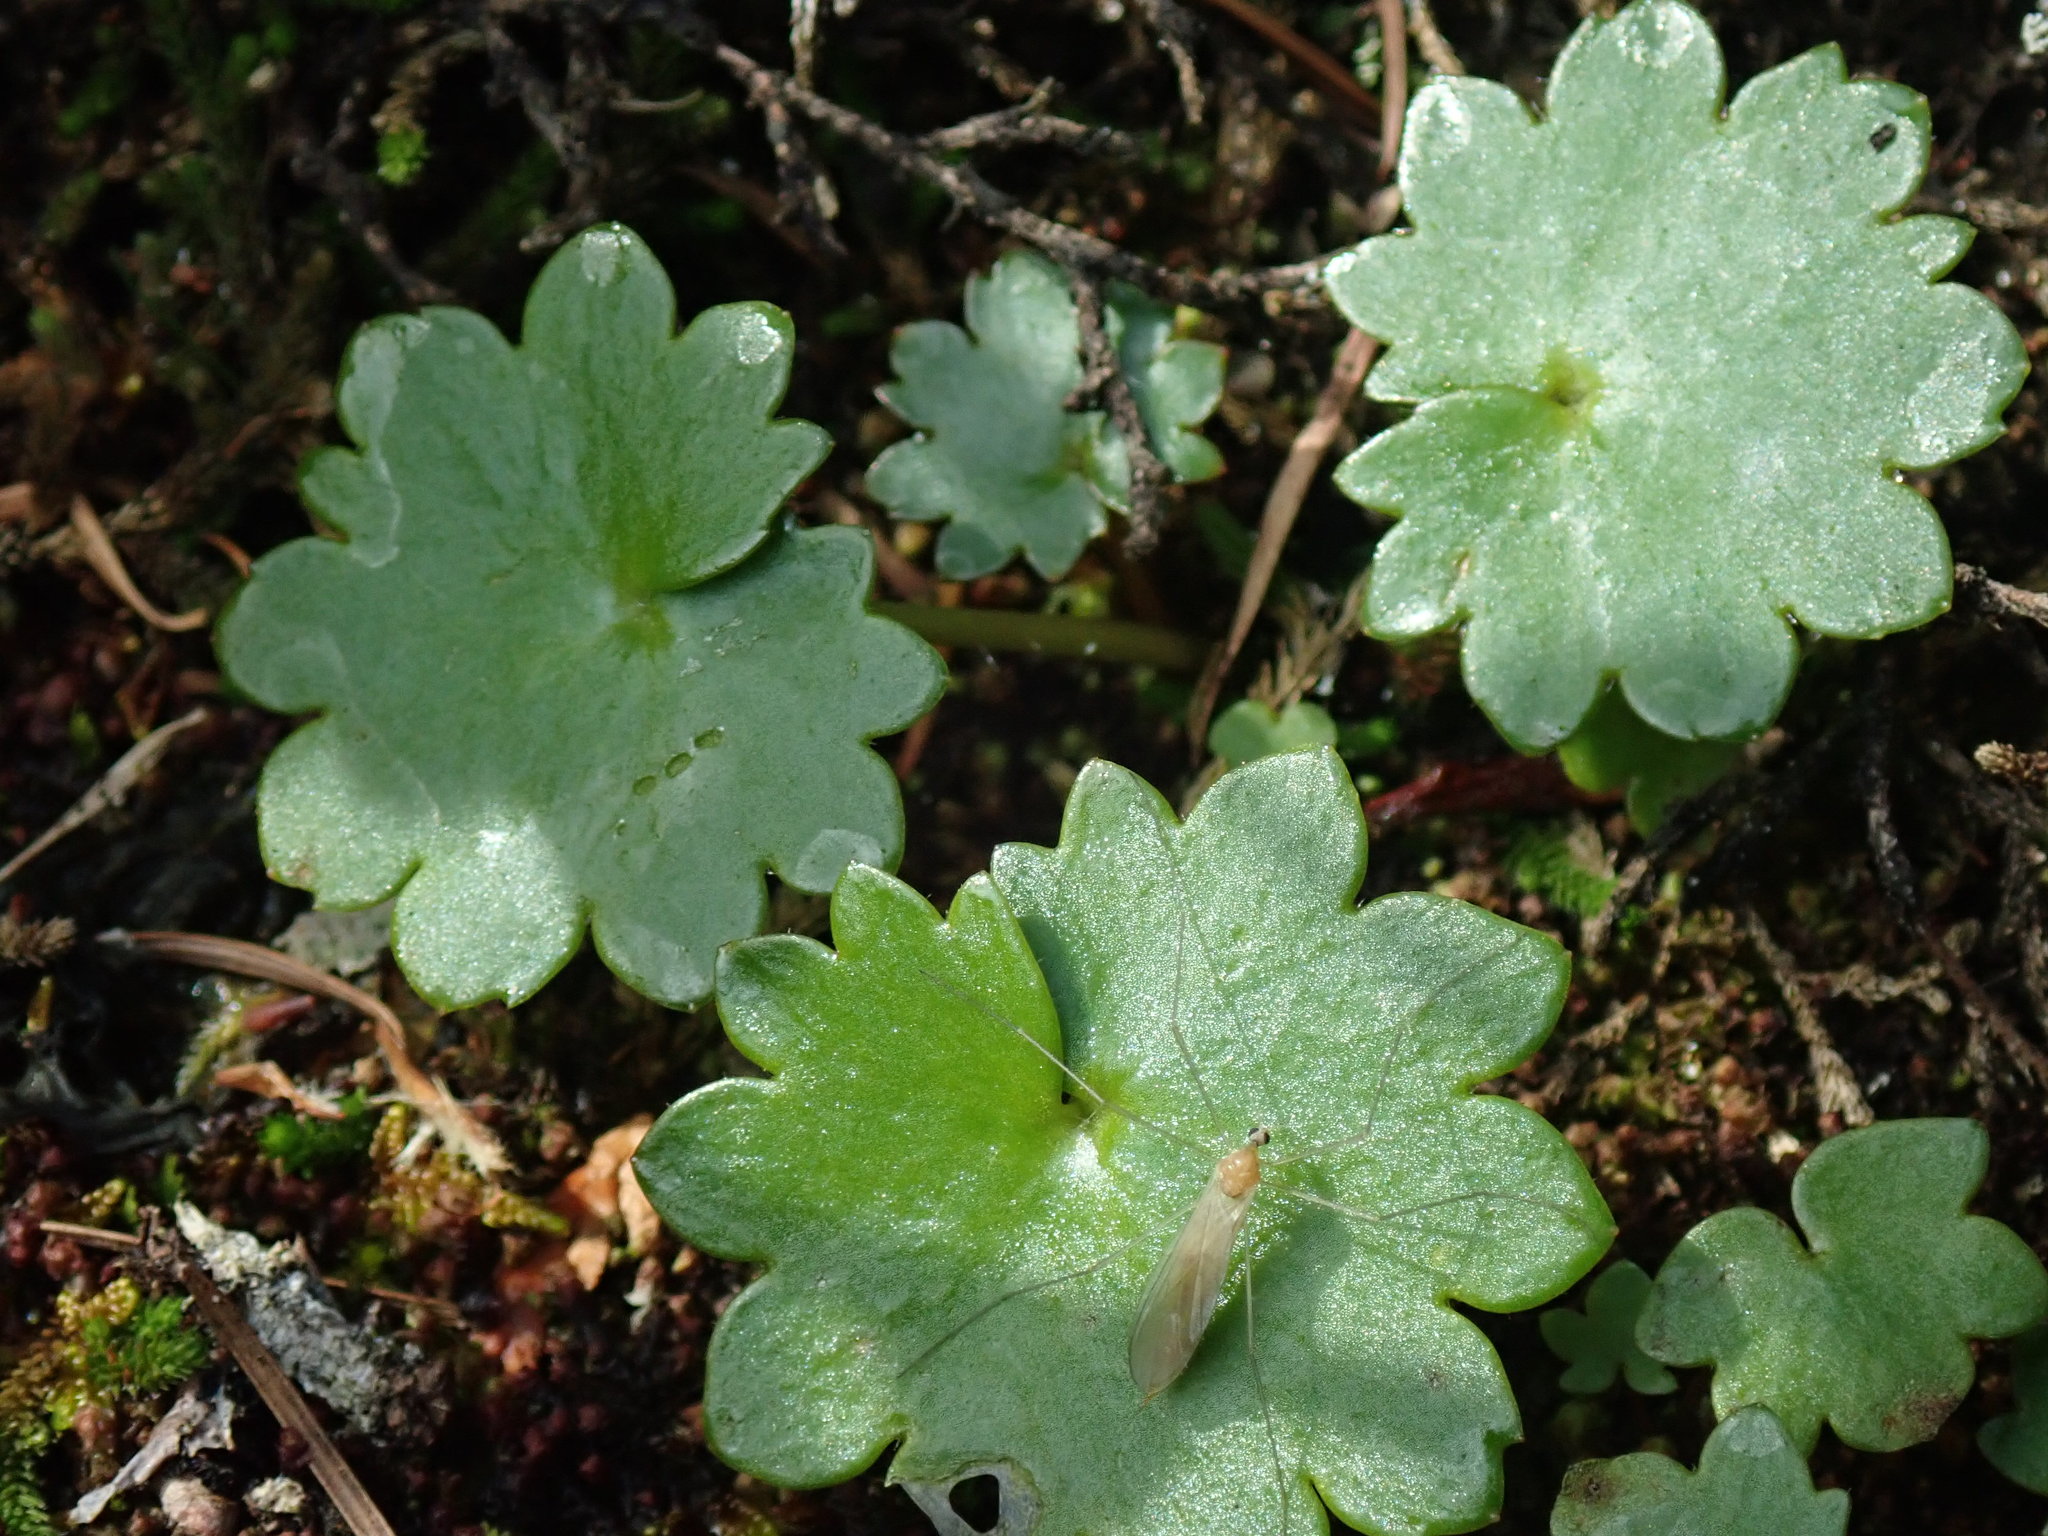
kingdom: Plantae
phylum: Tracheophyta
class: Magnoliopsida
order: Saxifragales
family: Saxifragaceae
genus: Micranthes
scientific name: Micranthes mertensiana
